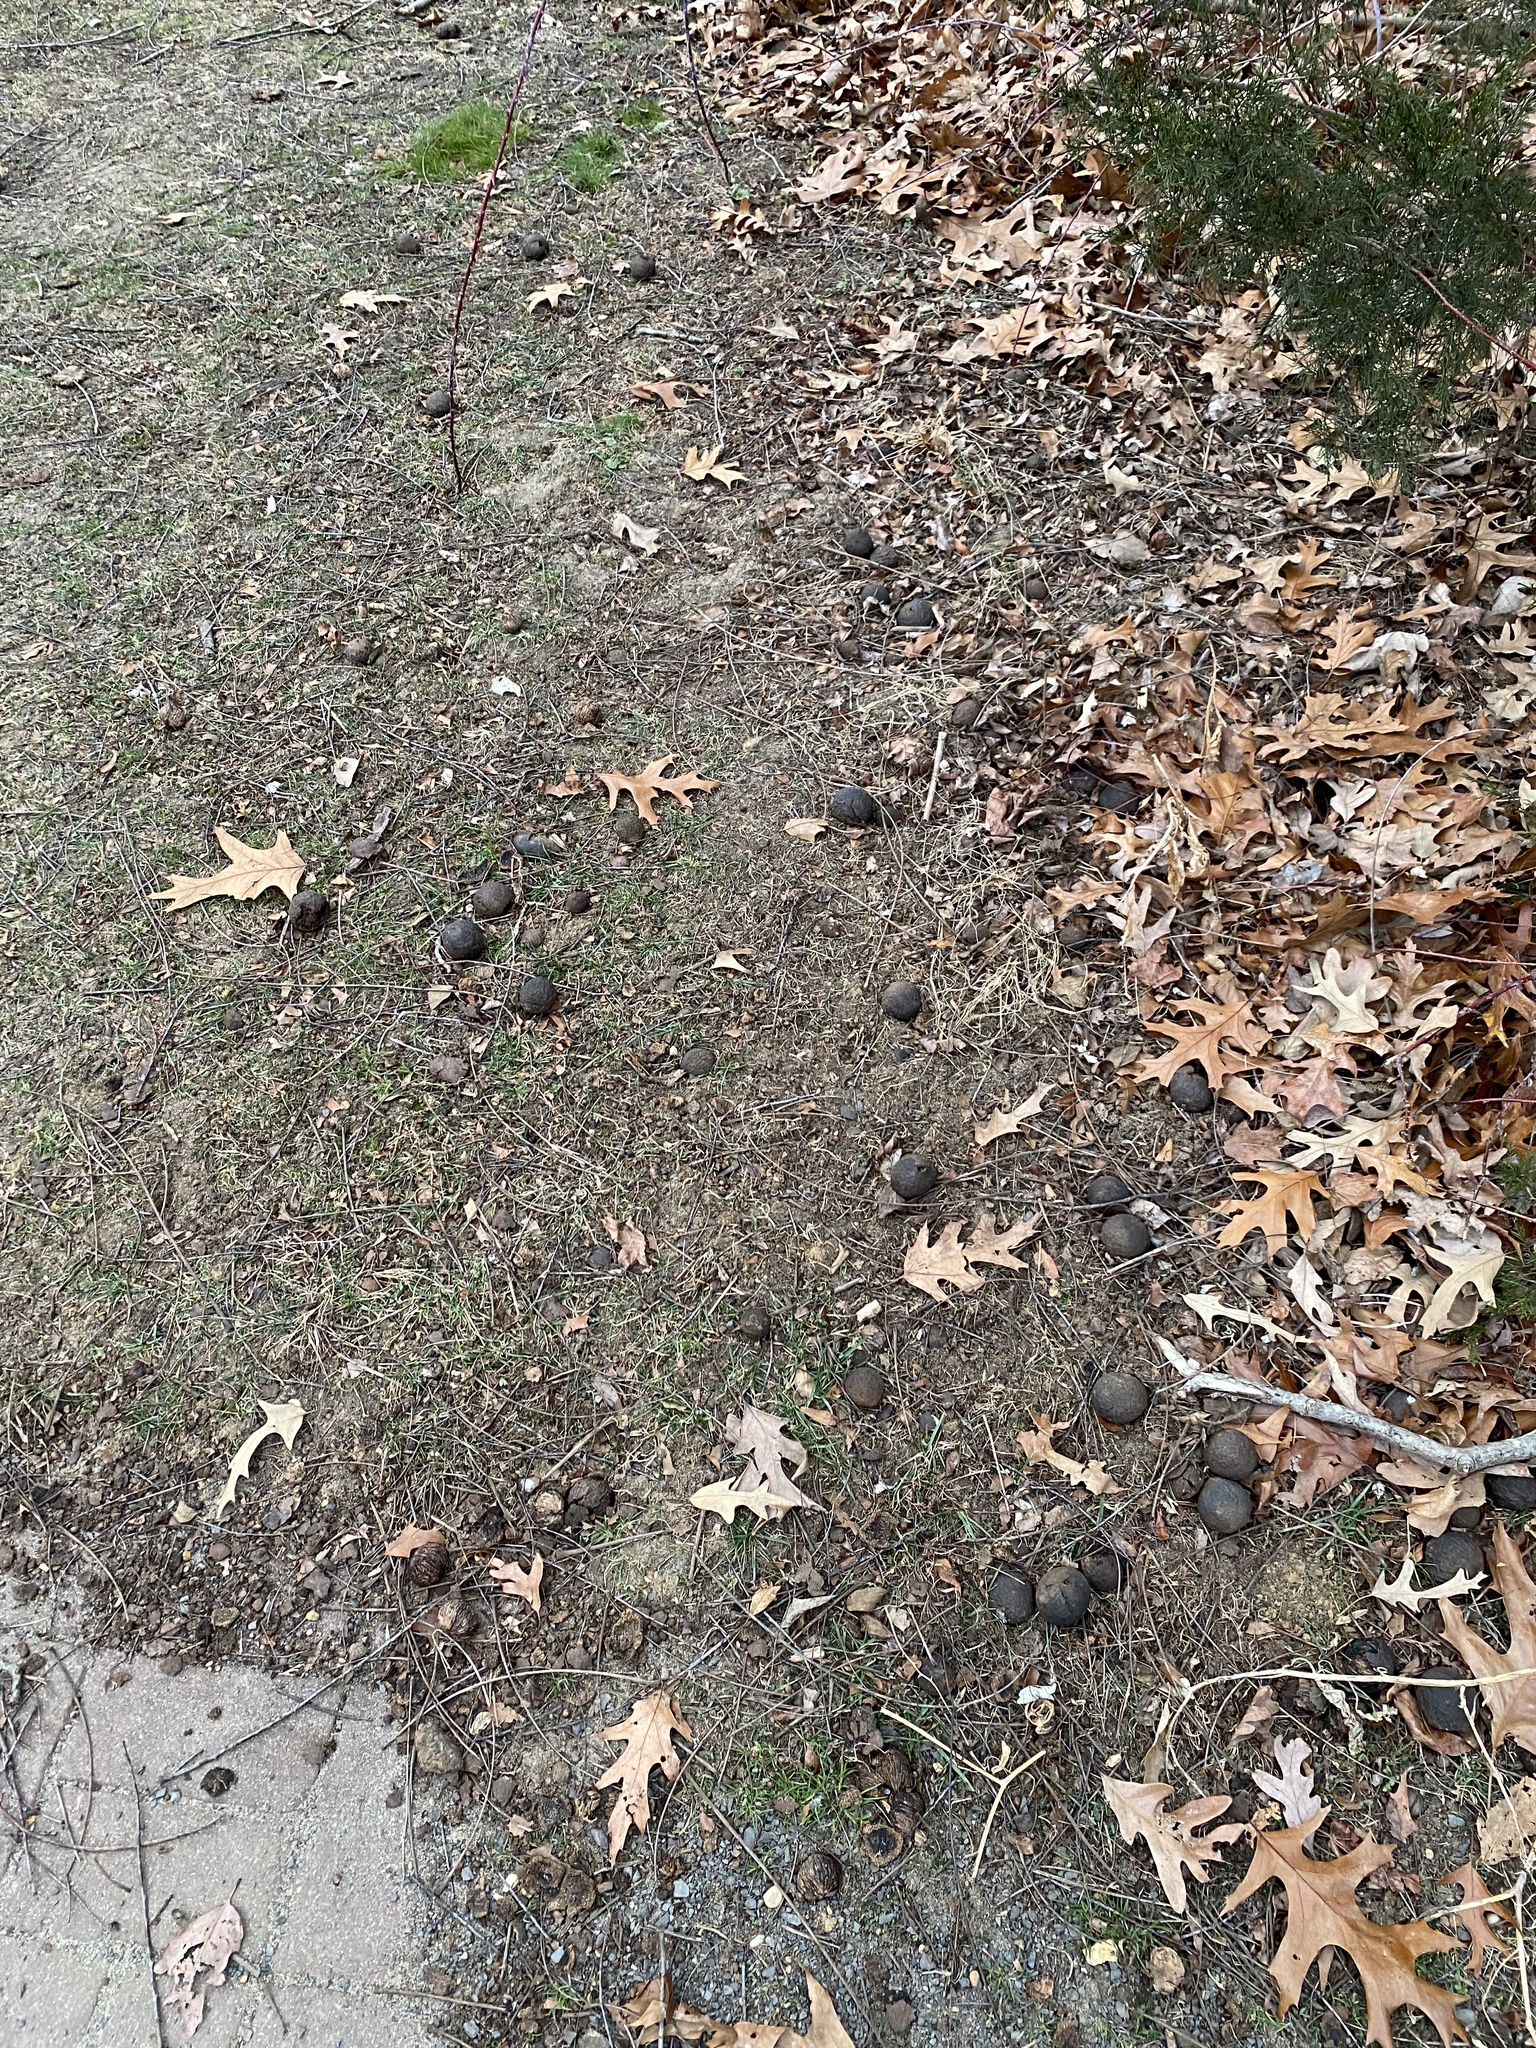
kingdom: Plantae
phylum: Tracheophyta
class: Magnoliopsida
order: Fagales
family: Juglandaceae
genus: Juglans
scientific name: Juglans nigra
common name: Black walnut
